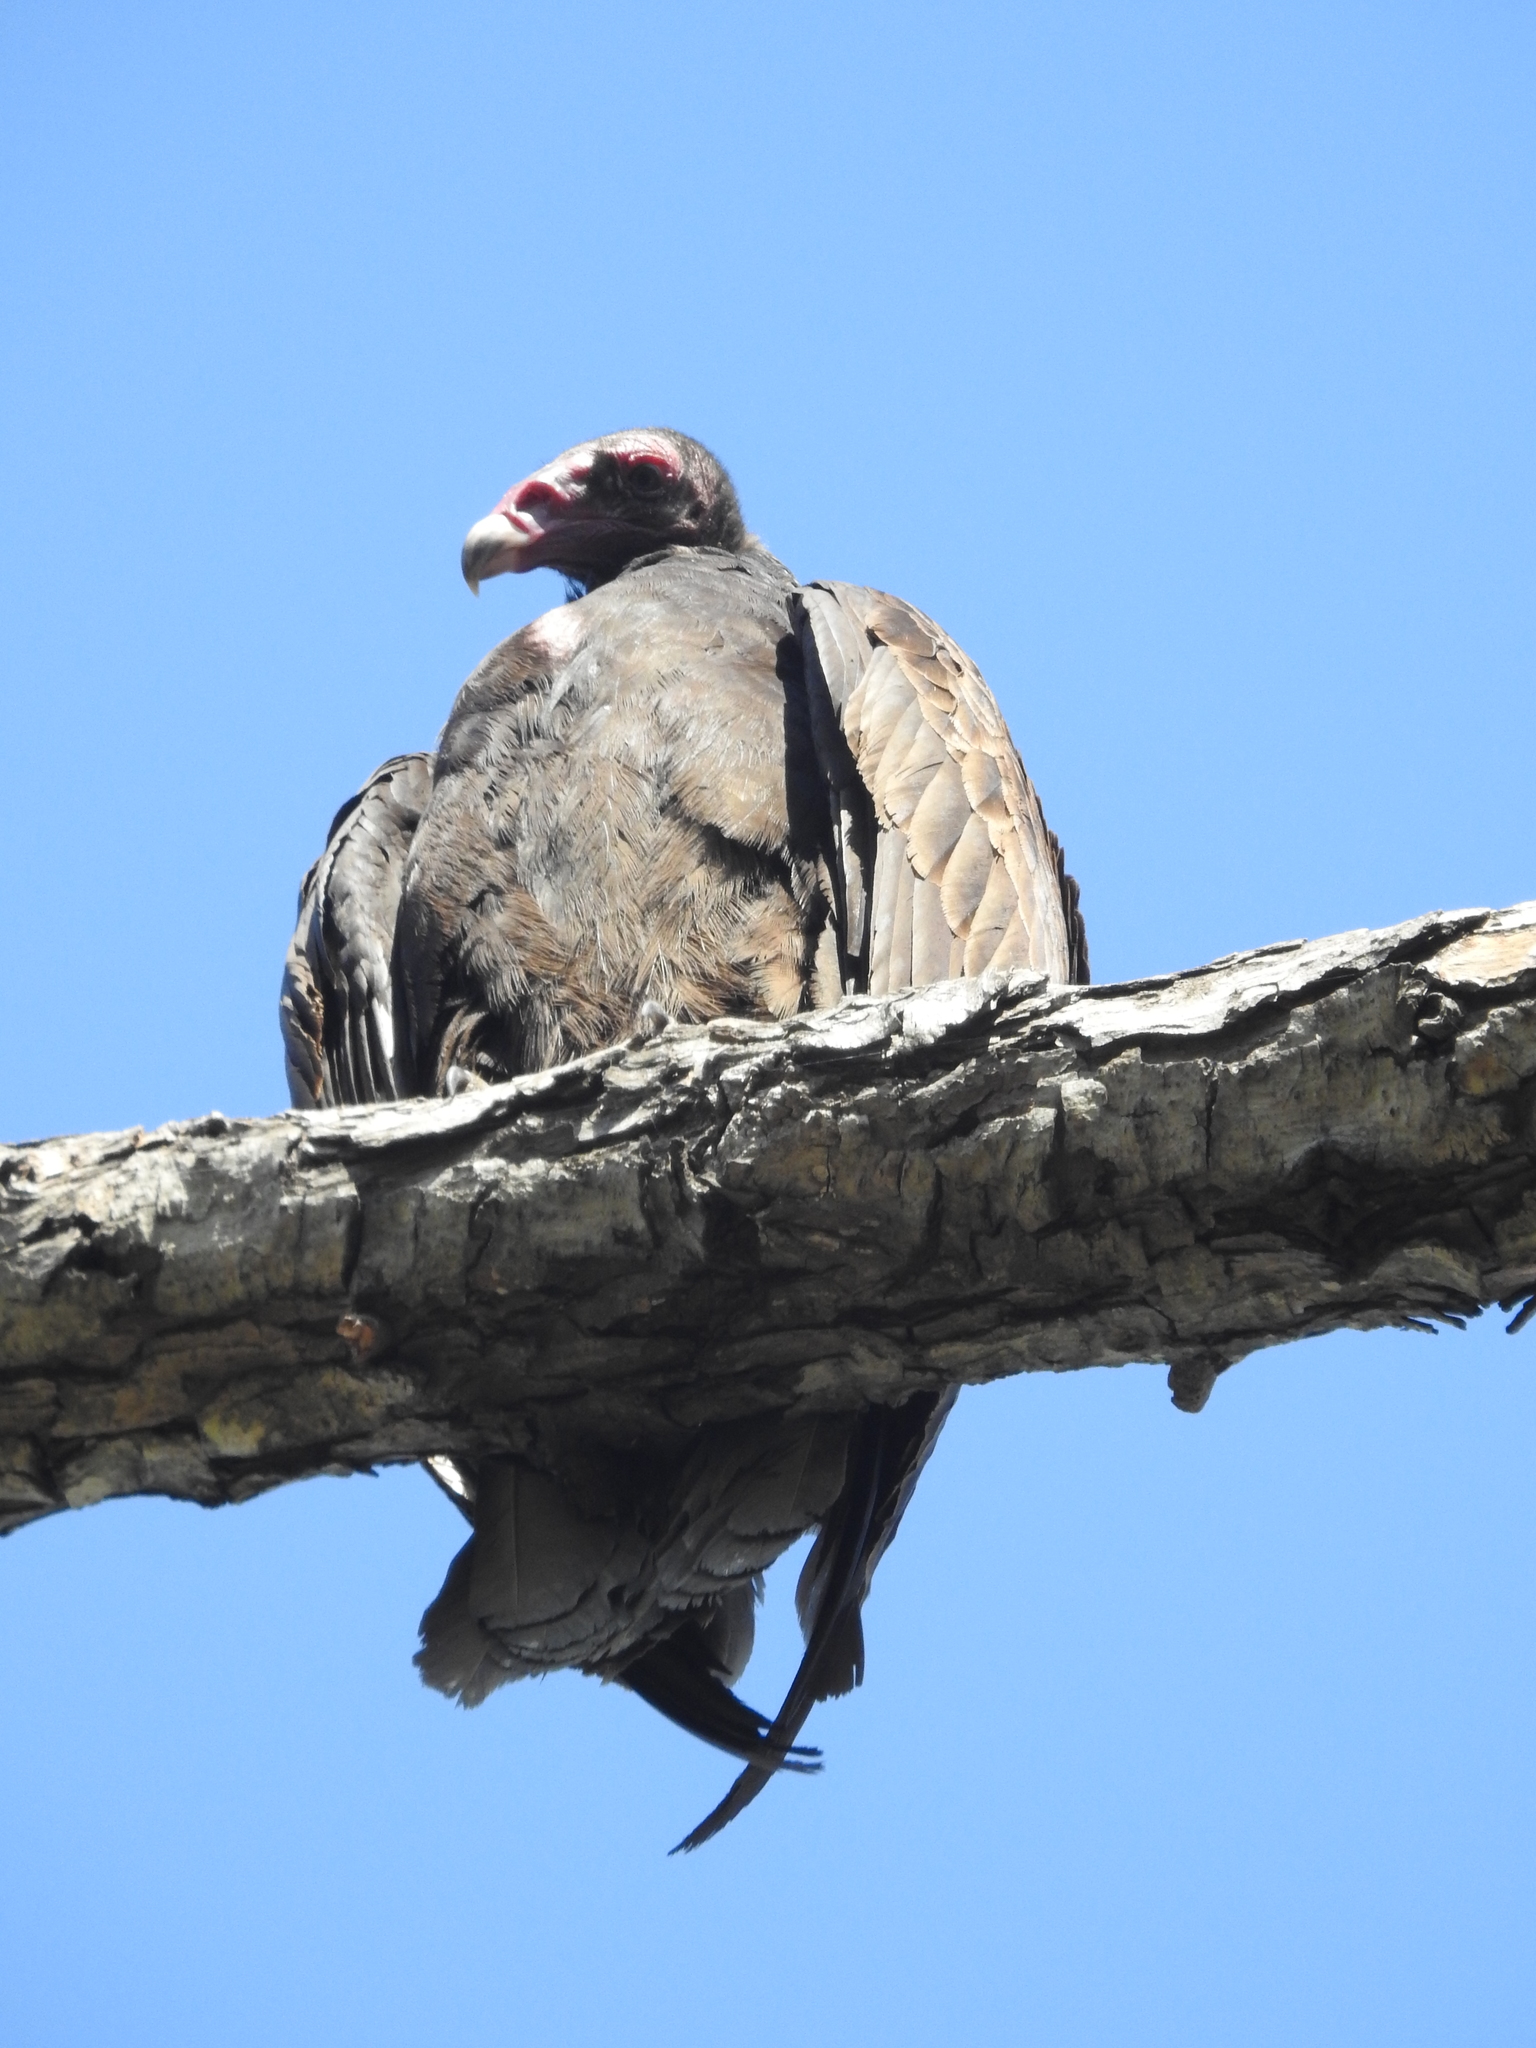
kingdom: Animalia
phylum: Chordata
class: Aves
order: Accipitriformes
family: Cathartidae
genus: Cathartes
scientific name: Cathartes aura
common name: Turkey vulture
